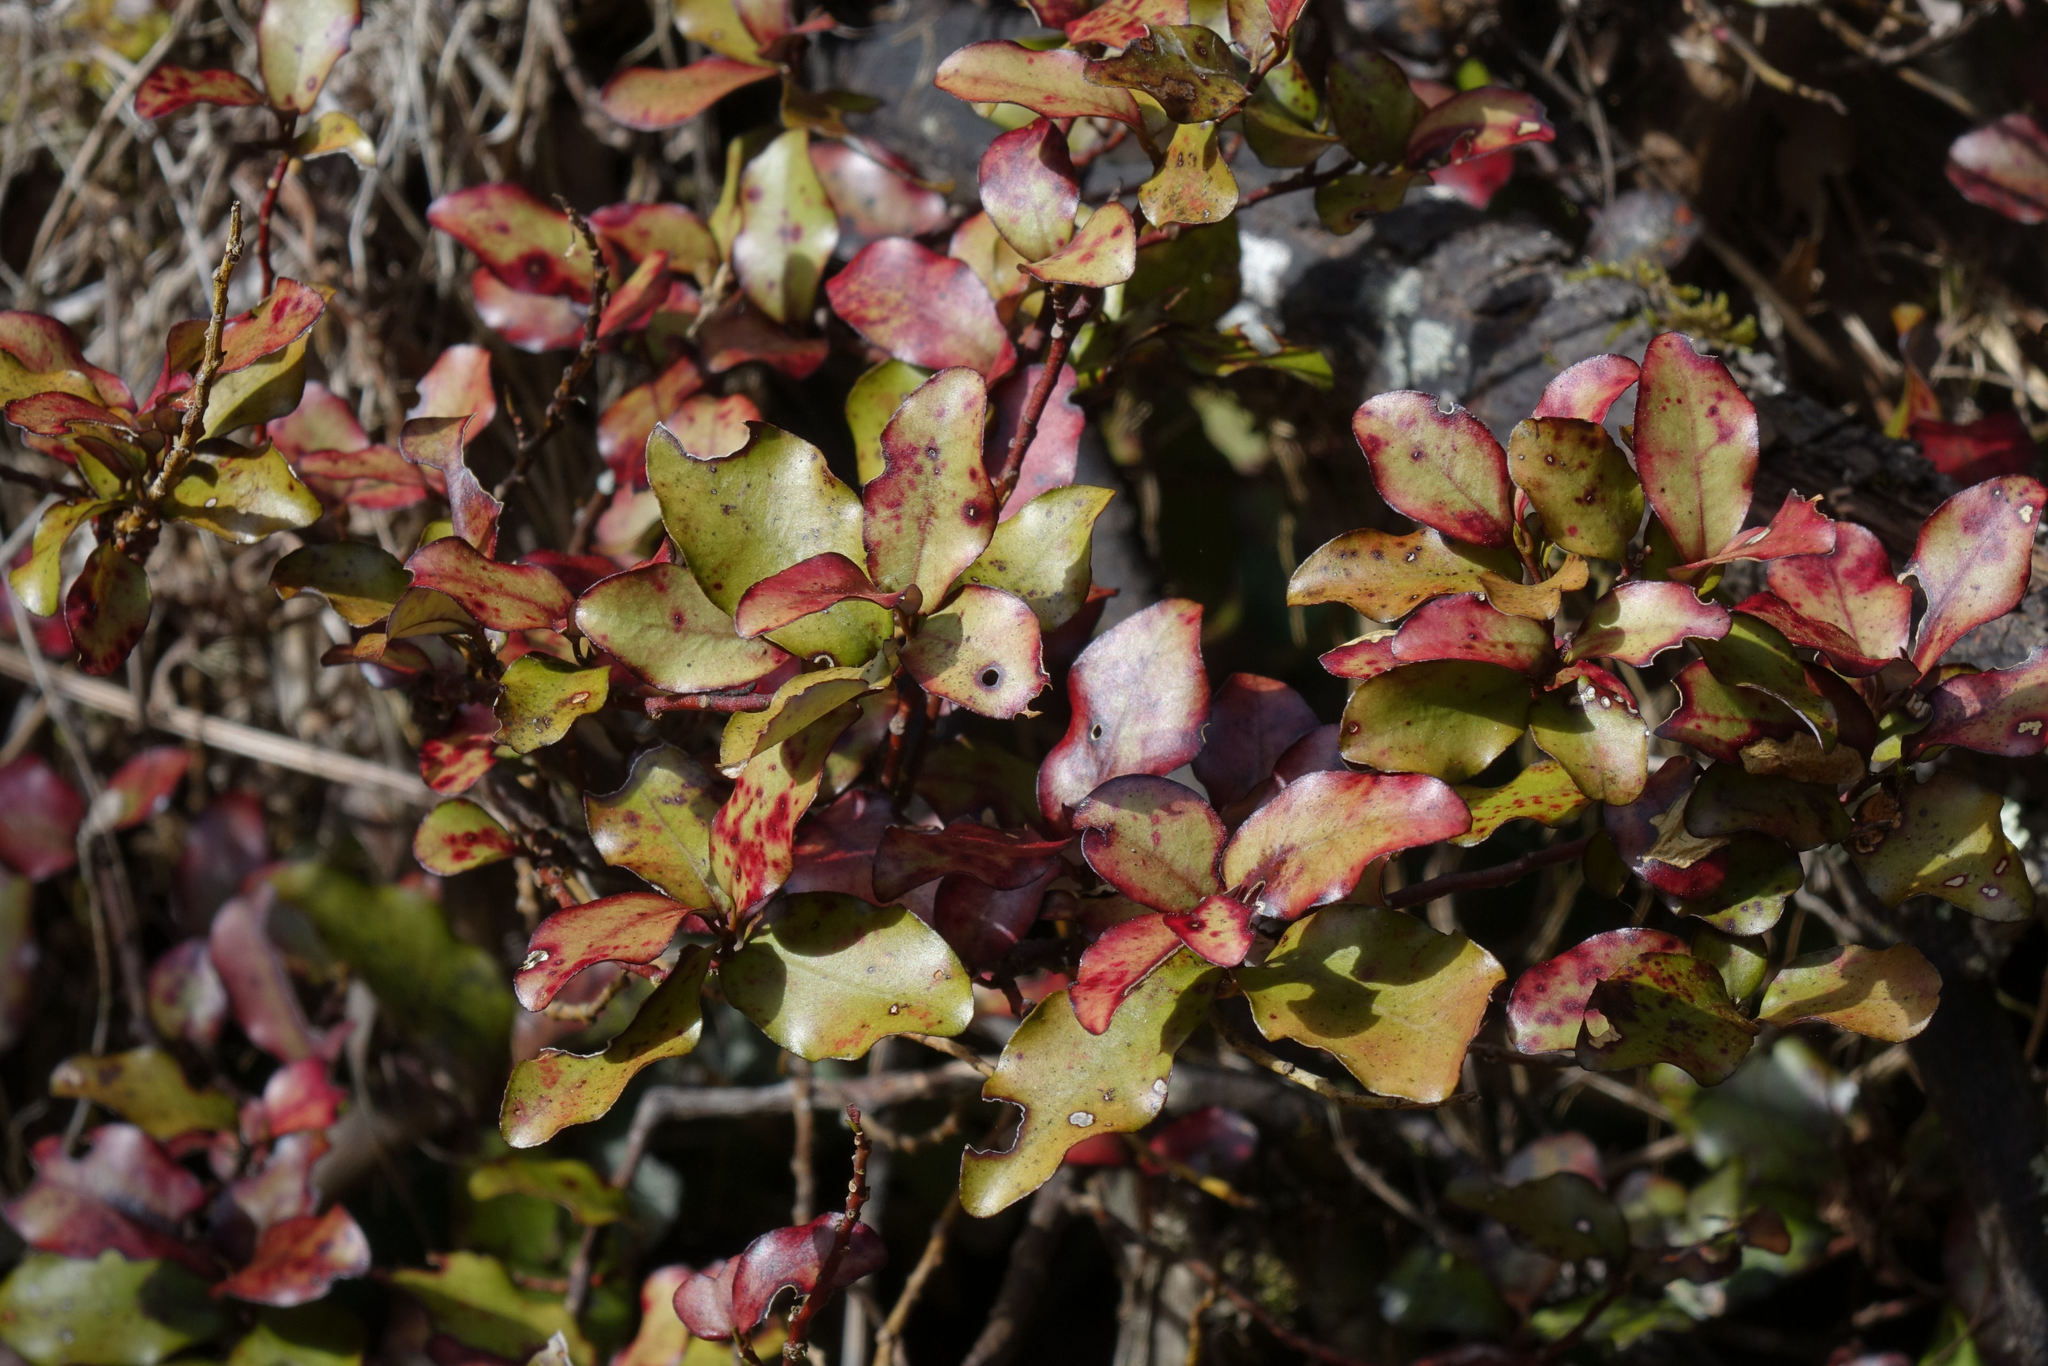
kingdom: Plantae
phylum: Tracheophyta
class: Magnoliopsida
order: Canellales
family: Winteraceae
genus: Pseudowintera
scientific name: Pseudowintera colorata
